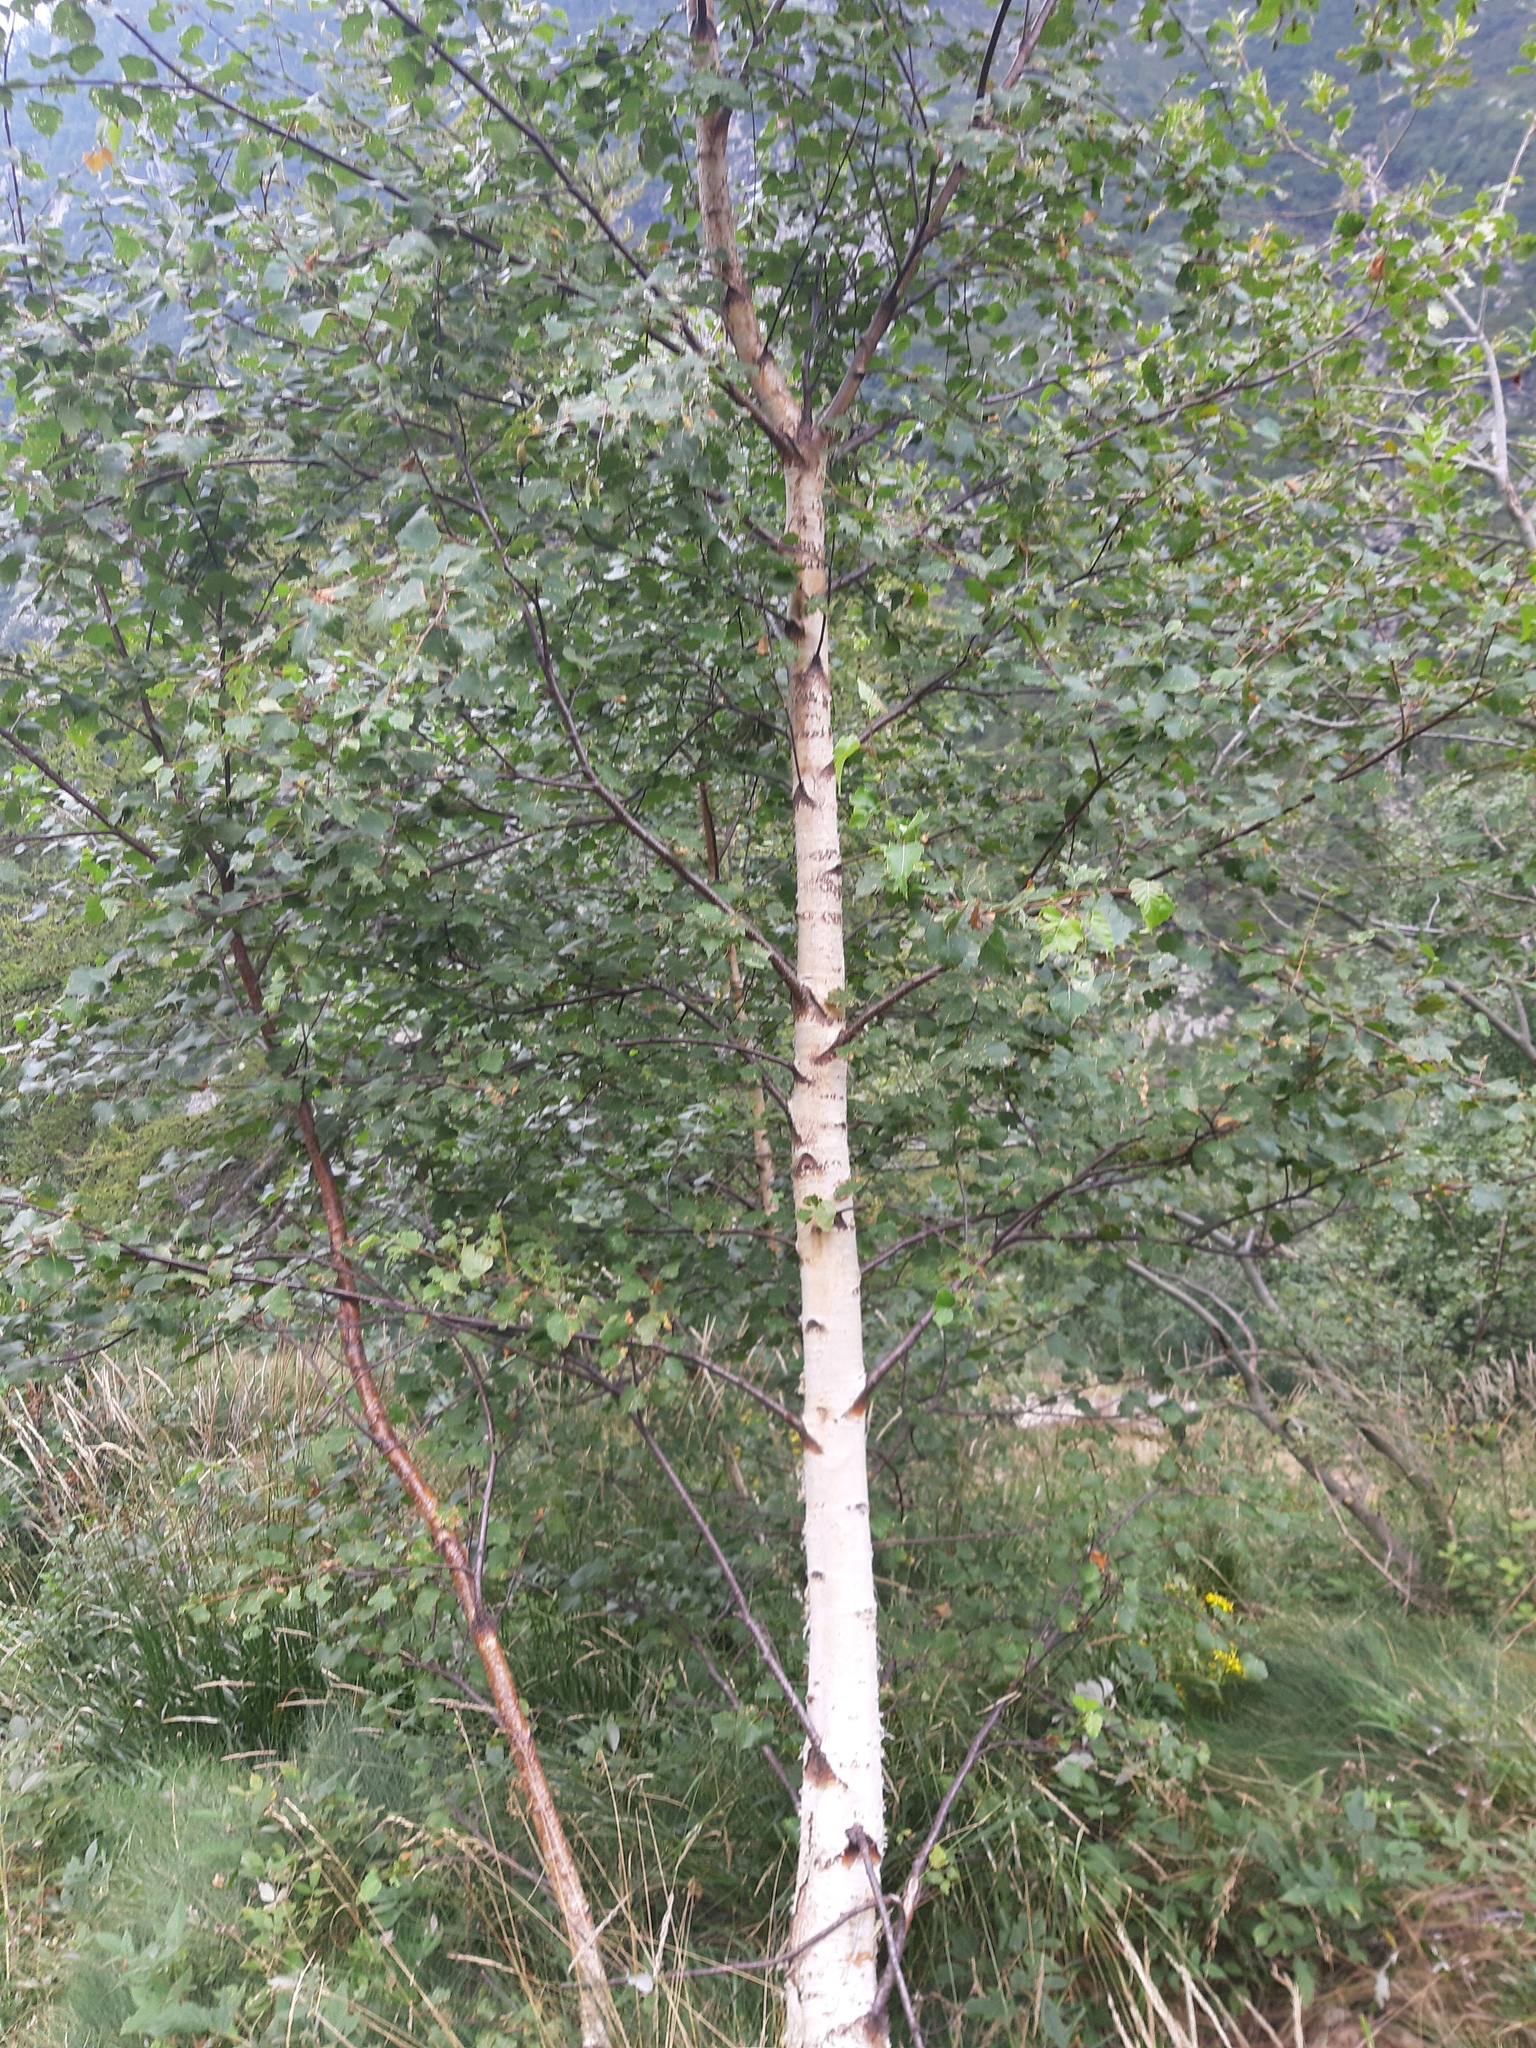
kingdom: Plantae
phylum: Tracheophyta
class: Magnoliopsida
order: Fagales
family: Betulaceae
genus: Betula
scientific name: Betula pendula
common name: Silver birch
